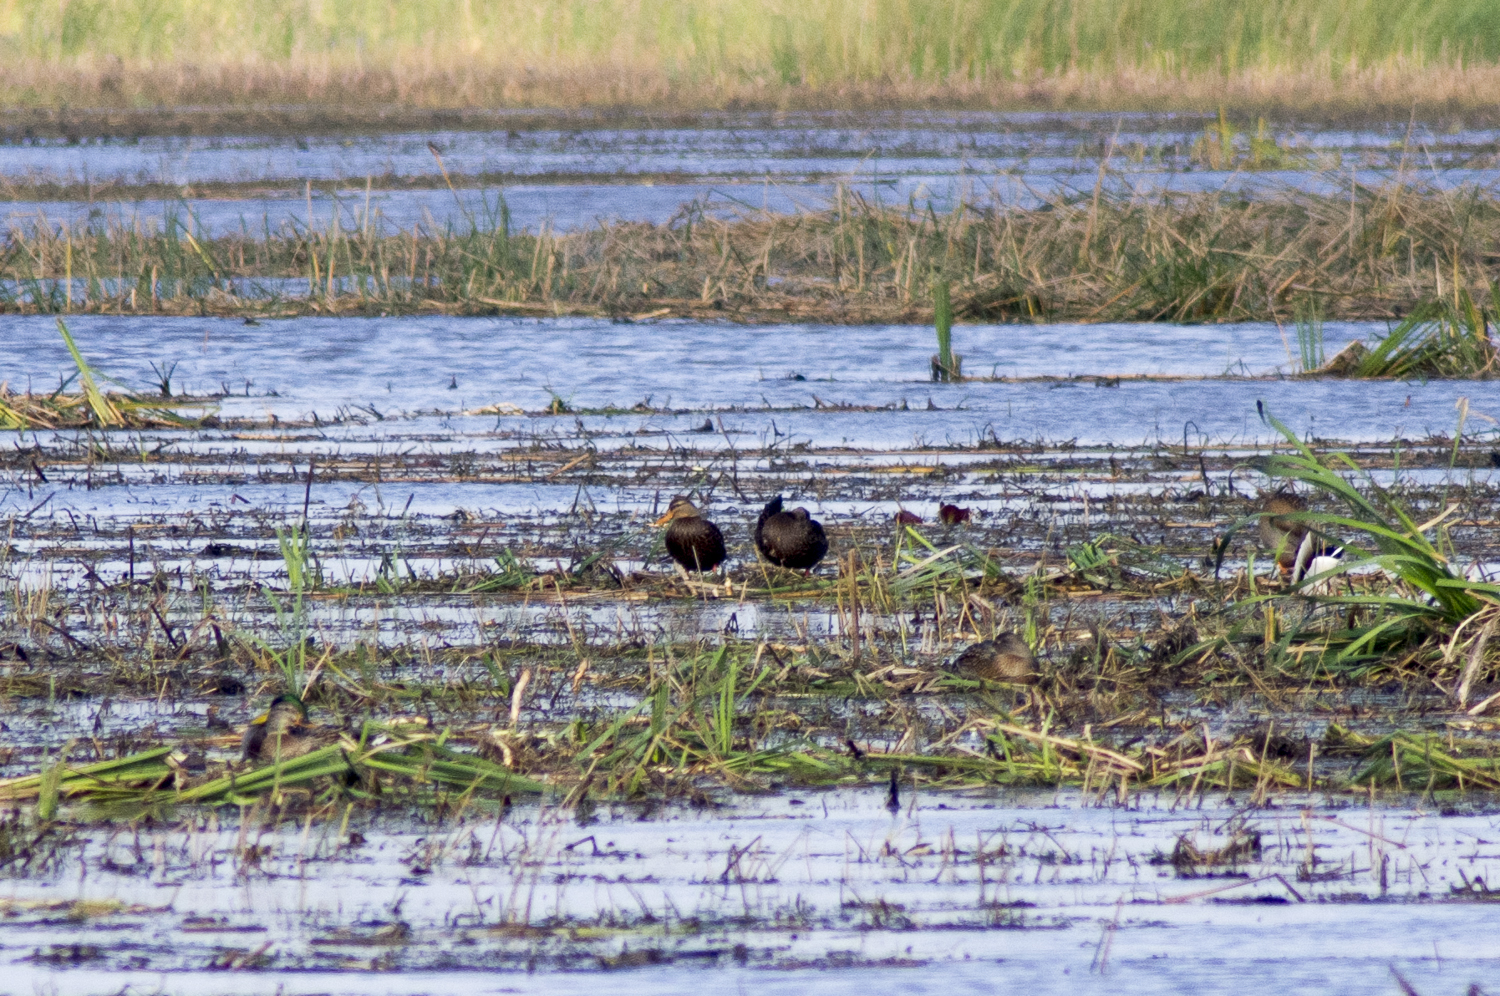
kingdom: Animalia
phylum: Chordata
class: Aves
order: Anseriformes
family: Anatidae
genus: Anas
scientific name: Anas fulvigula
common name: Mottled duck
